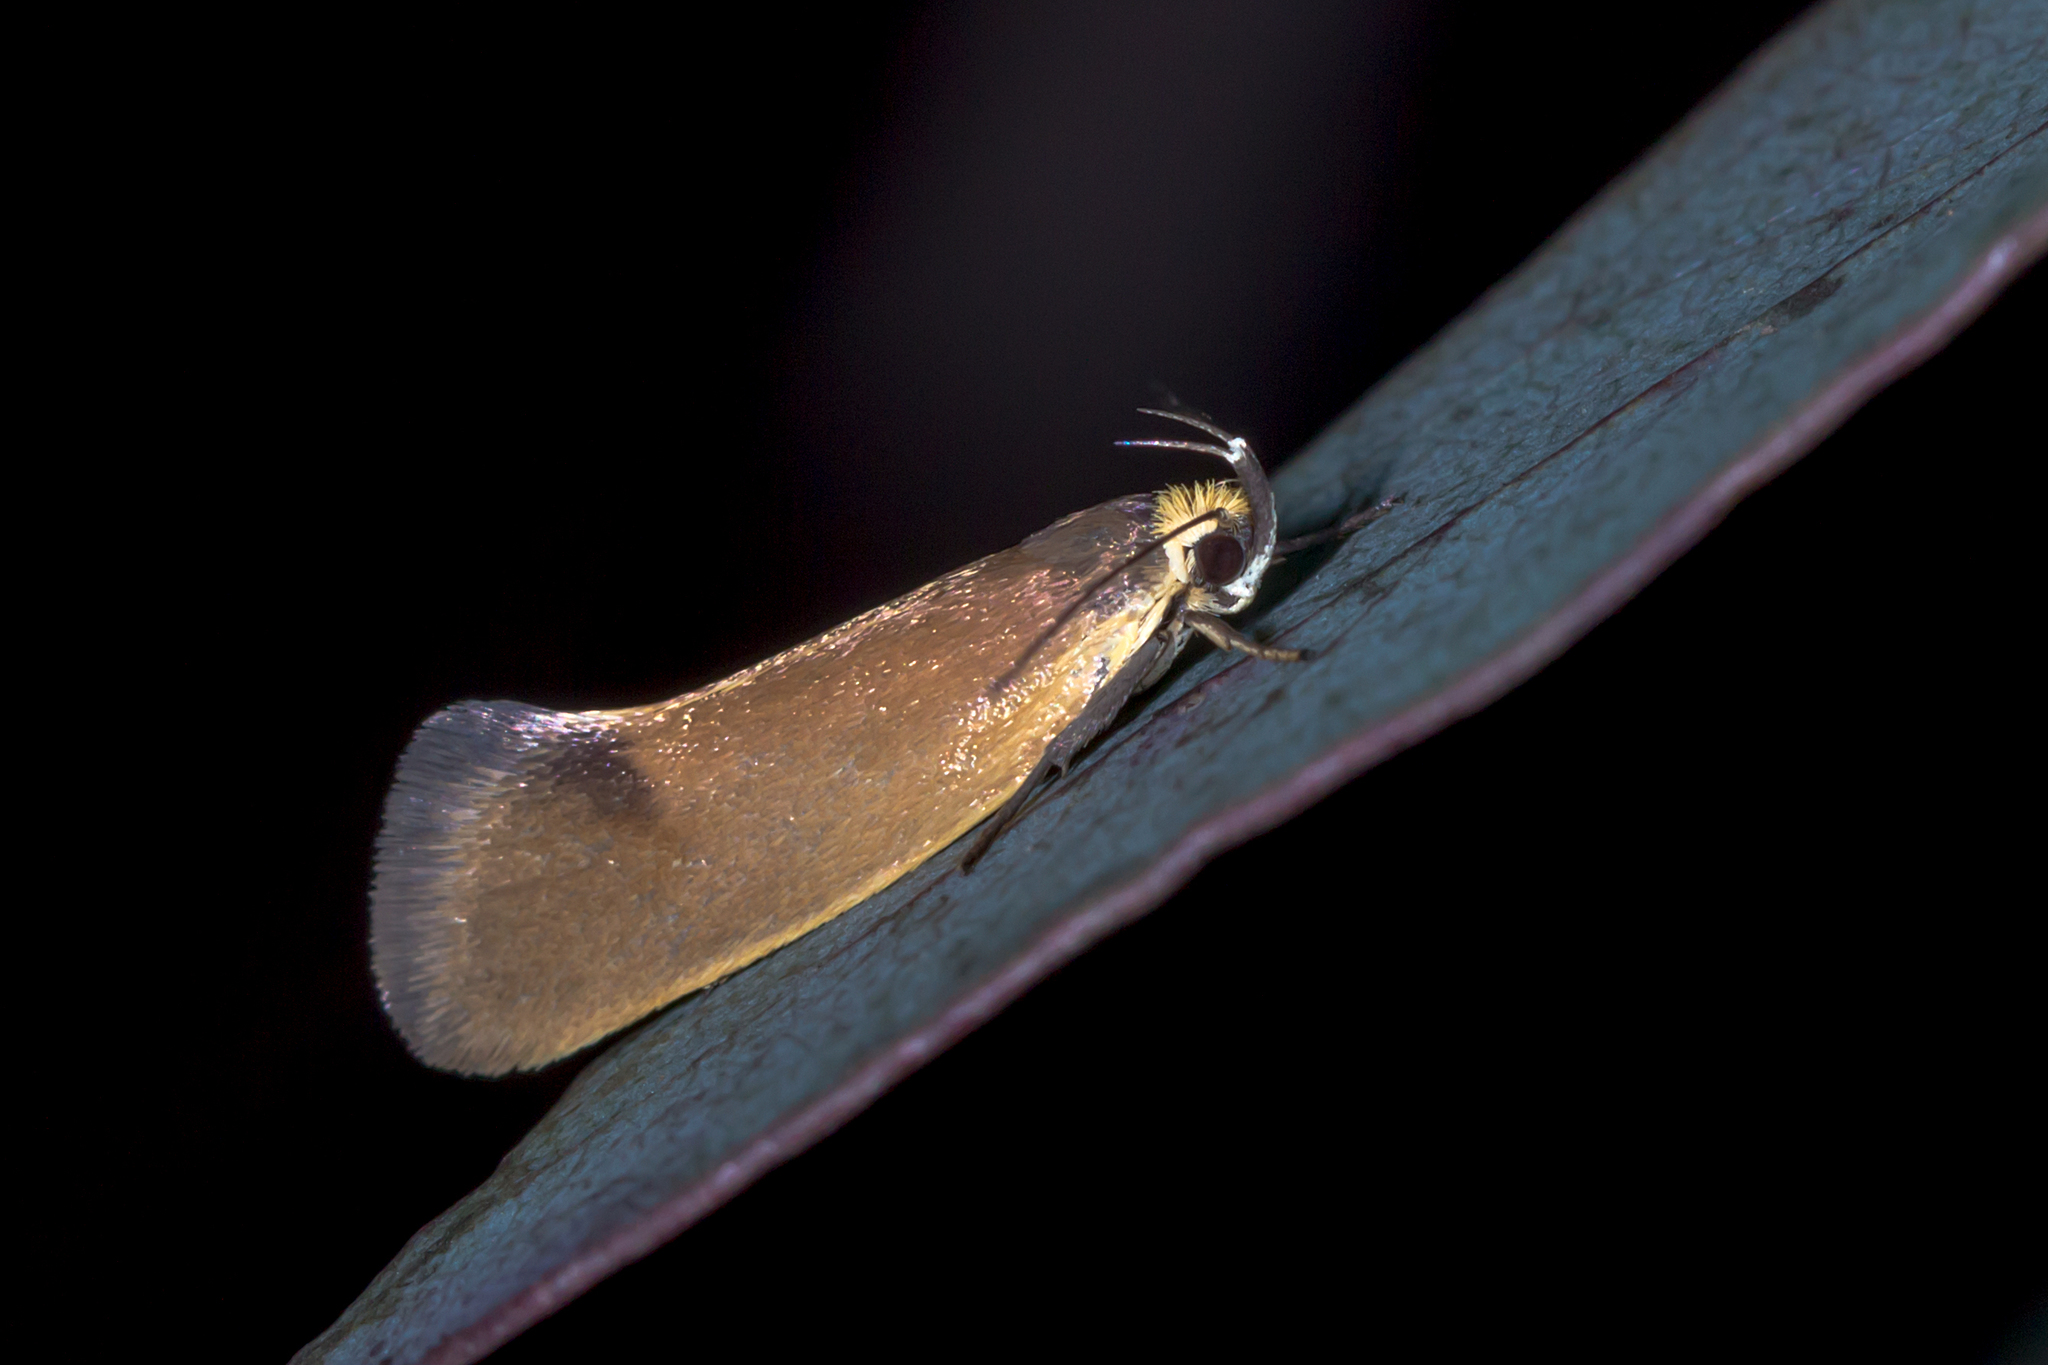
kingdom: Animalia
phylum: Arthropoda
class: Insecta
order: Lepidoptera
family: Oecophoridae
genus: Delexocha
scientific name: Delexocha ochrocausta
